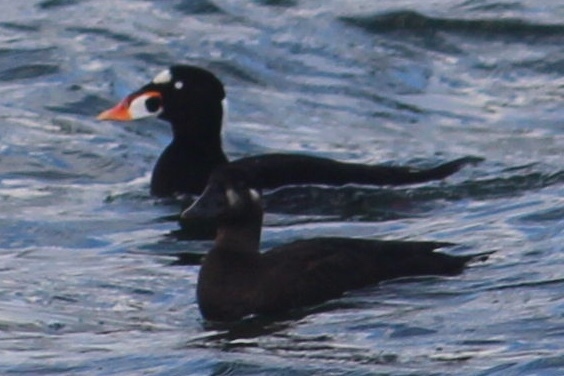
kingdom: Animalia
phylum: Chordata
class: Aves
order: Anseriformes
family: Anatidae
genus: Melanitta
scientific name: Melanitta perspicillata
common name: Surf scoter
